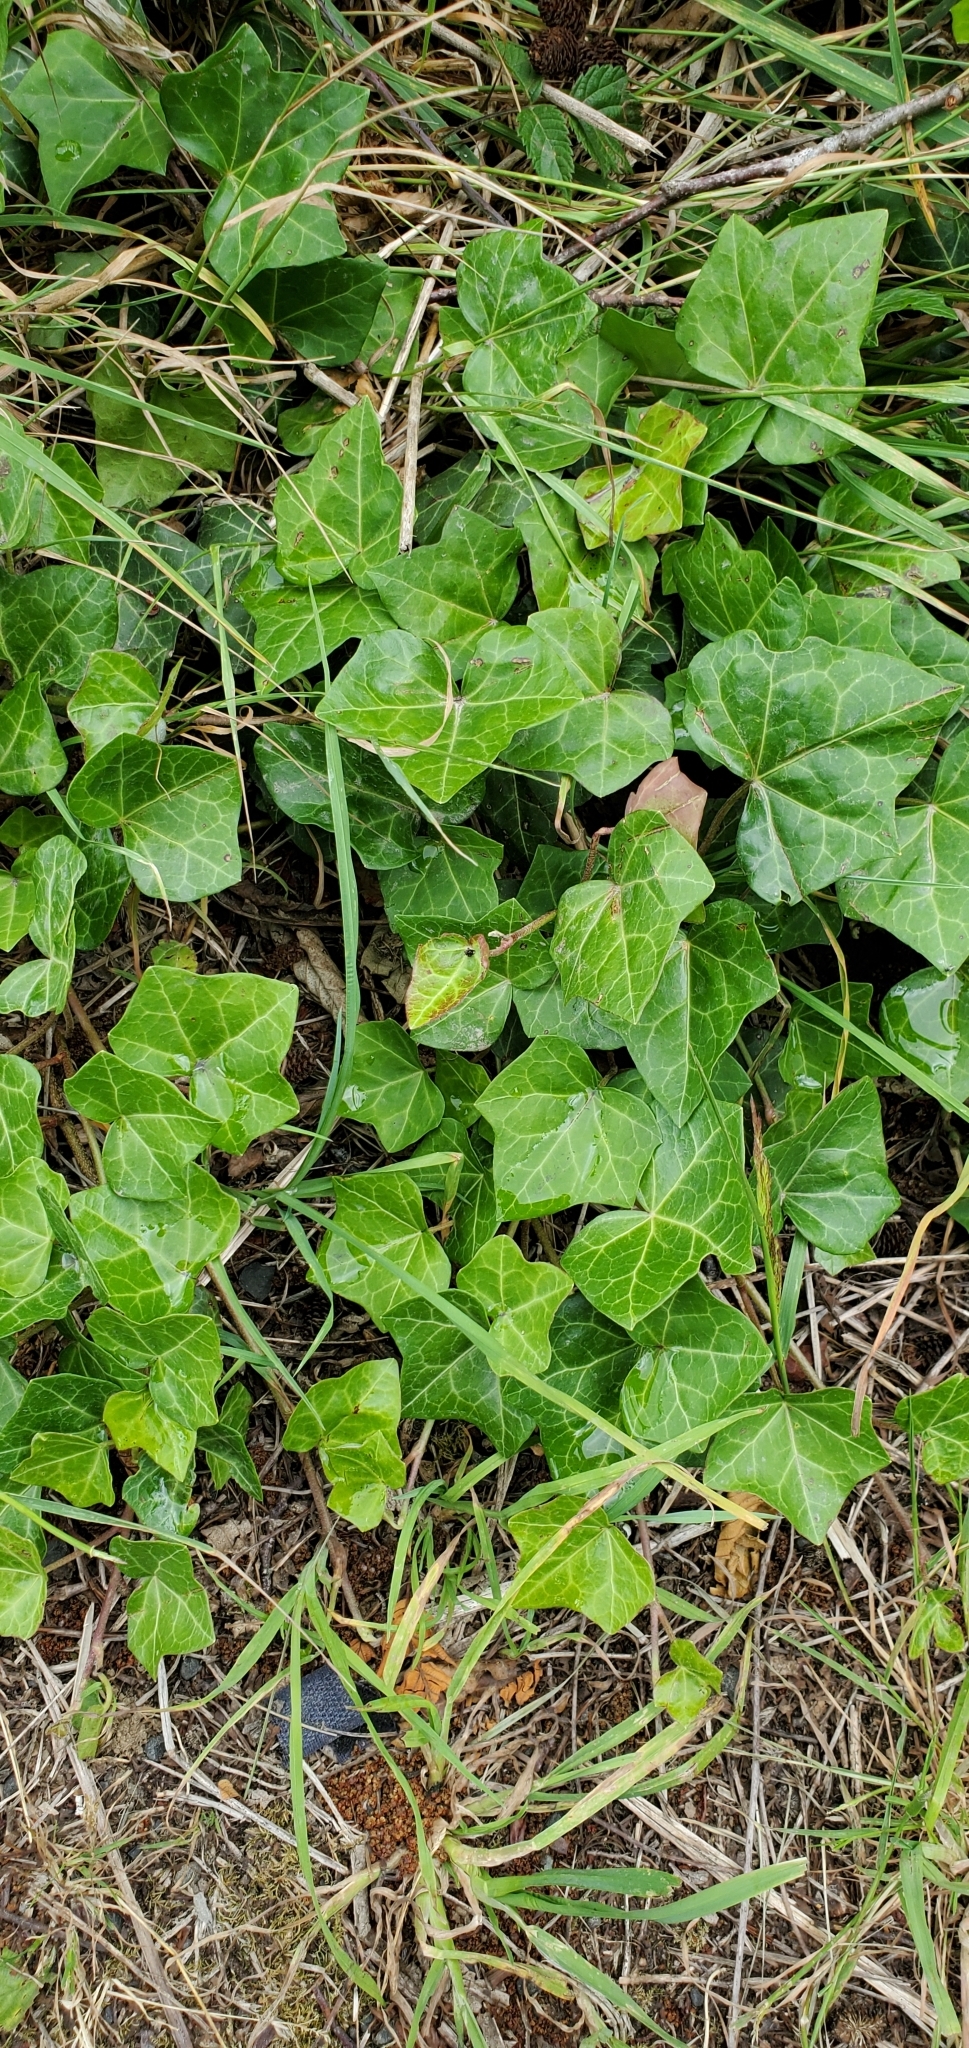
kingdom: Plantae
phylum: Tracheophyta
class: Magnoliopsida
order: Apiales
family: Araliaceae
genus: Hedera
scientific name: Hedera helix
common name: Ivy
